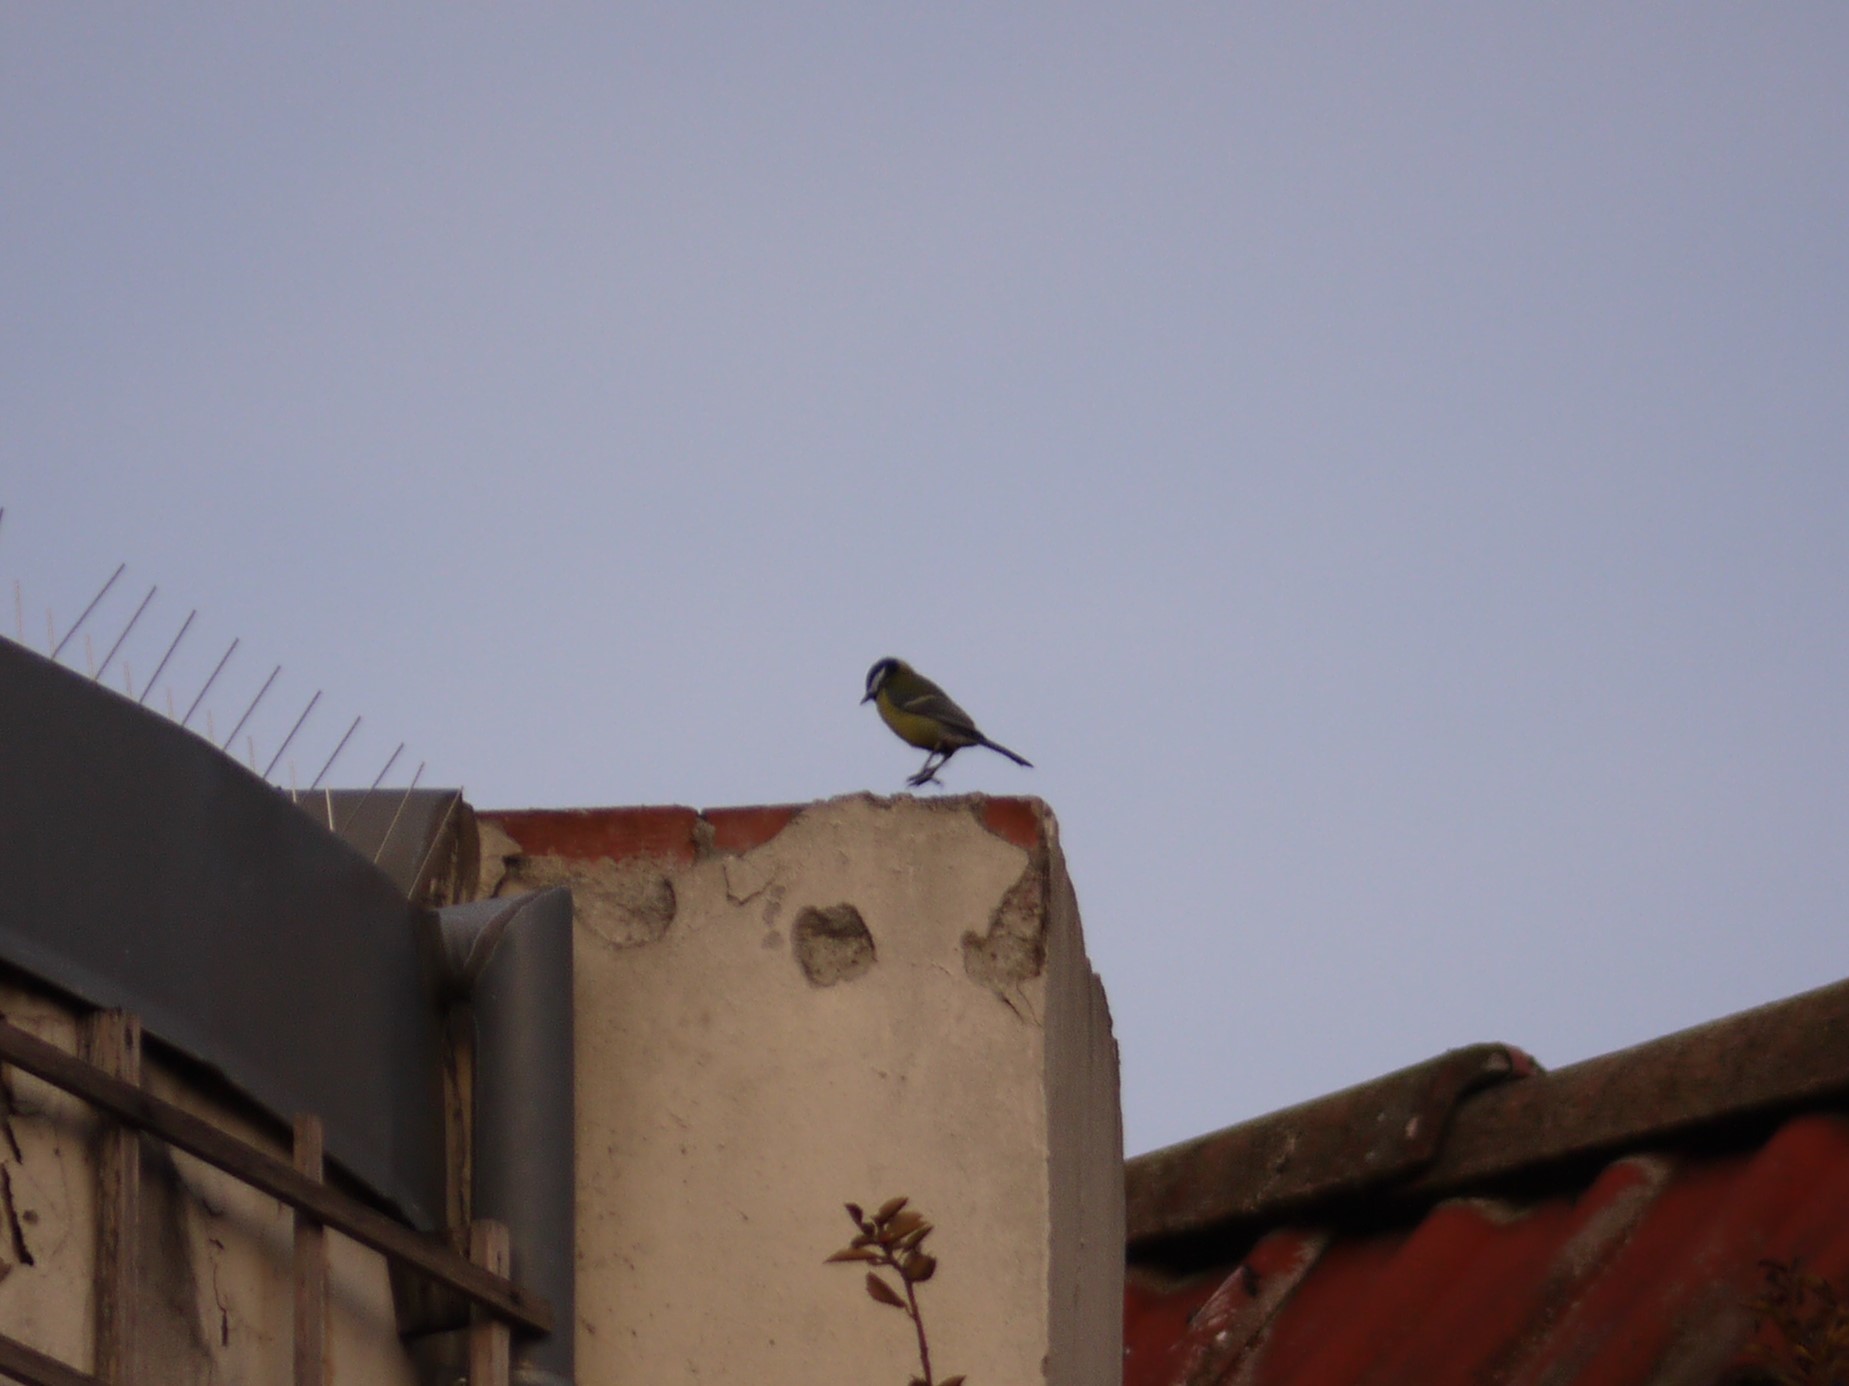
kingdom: Animalia
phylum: Chordata
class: Aves
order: Passeriformes
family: Paridae
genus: Parus
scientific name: Parus major
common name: Great tit
